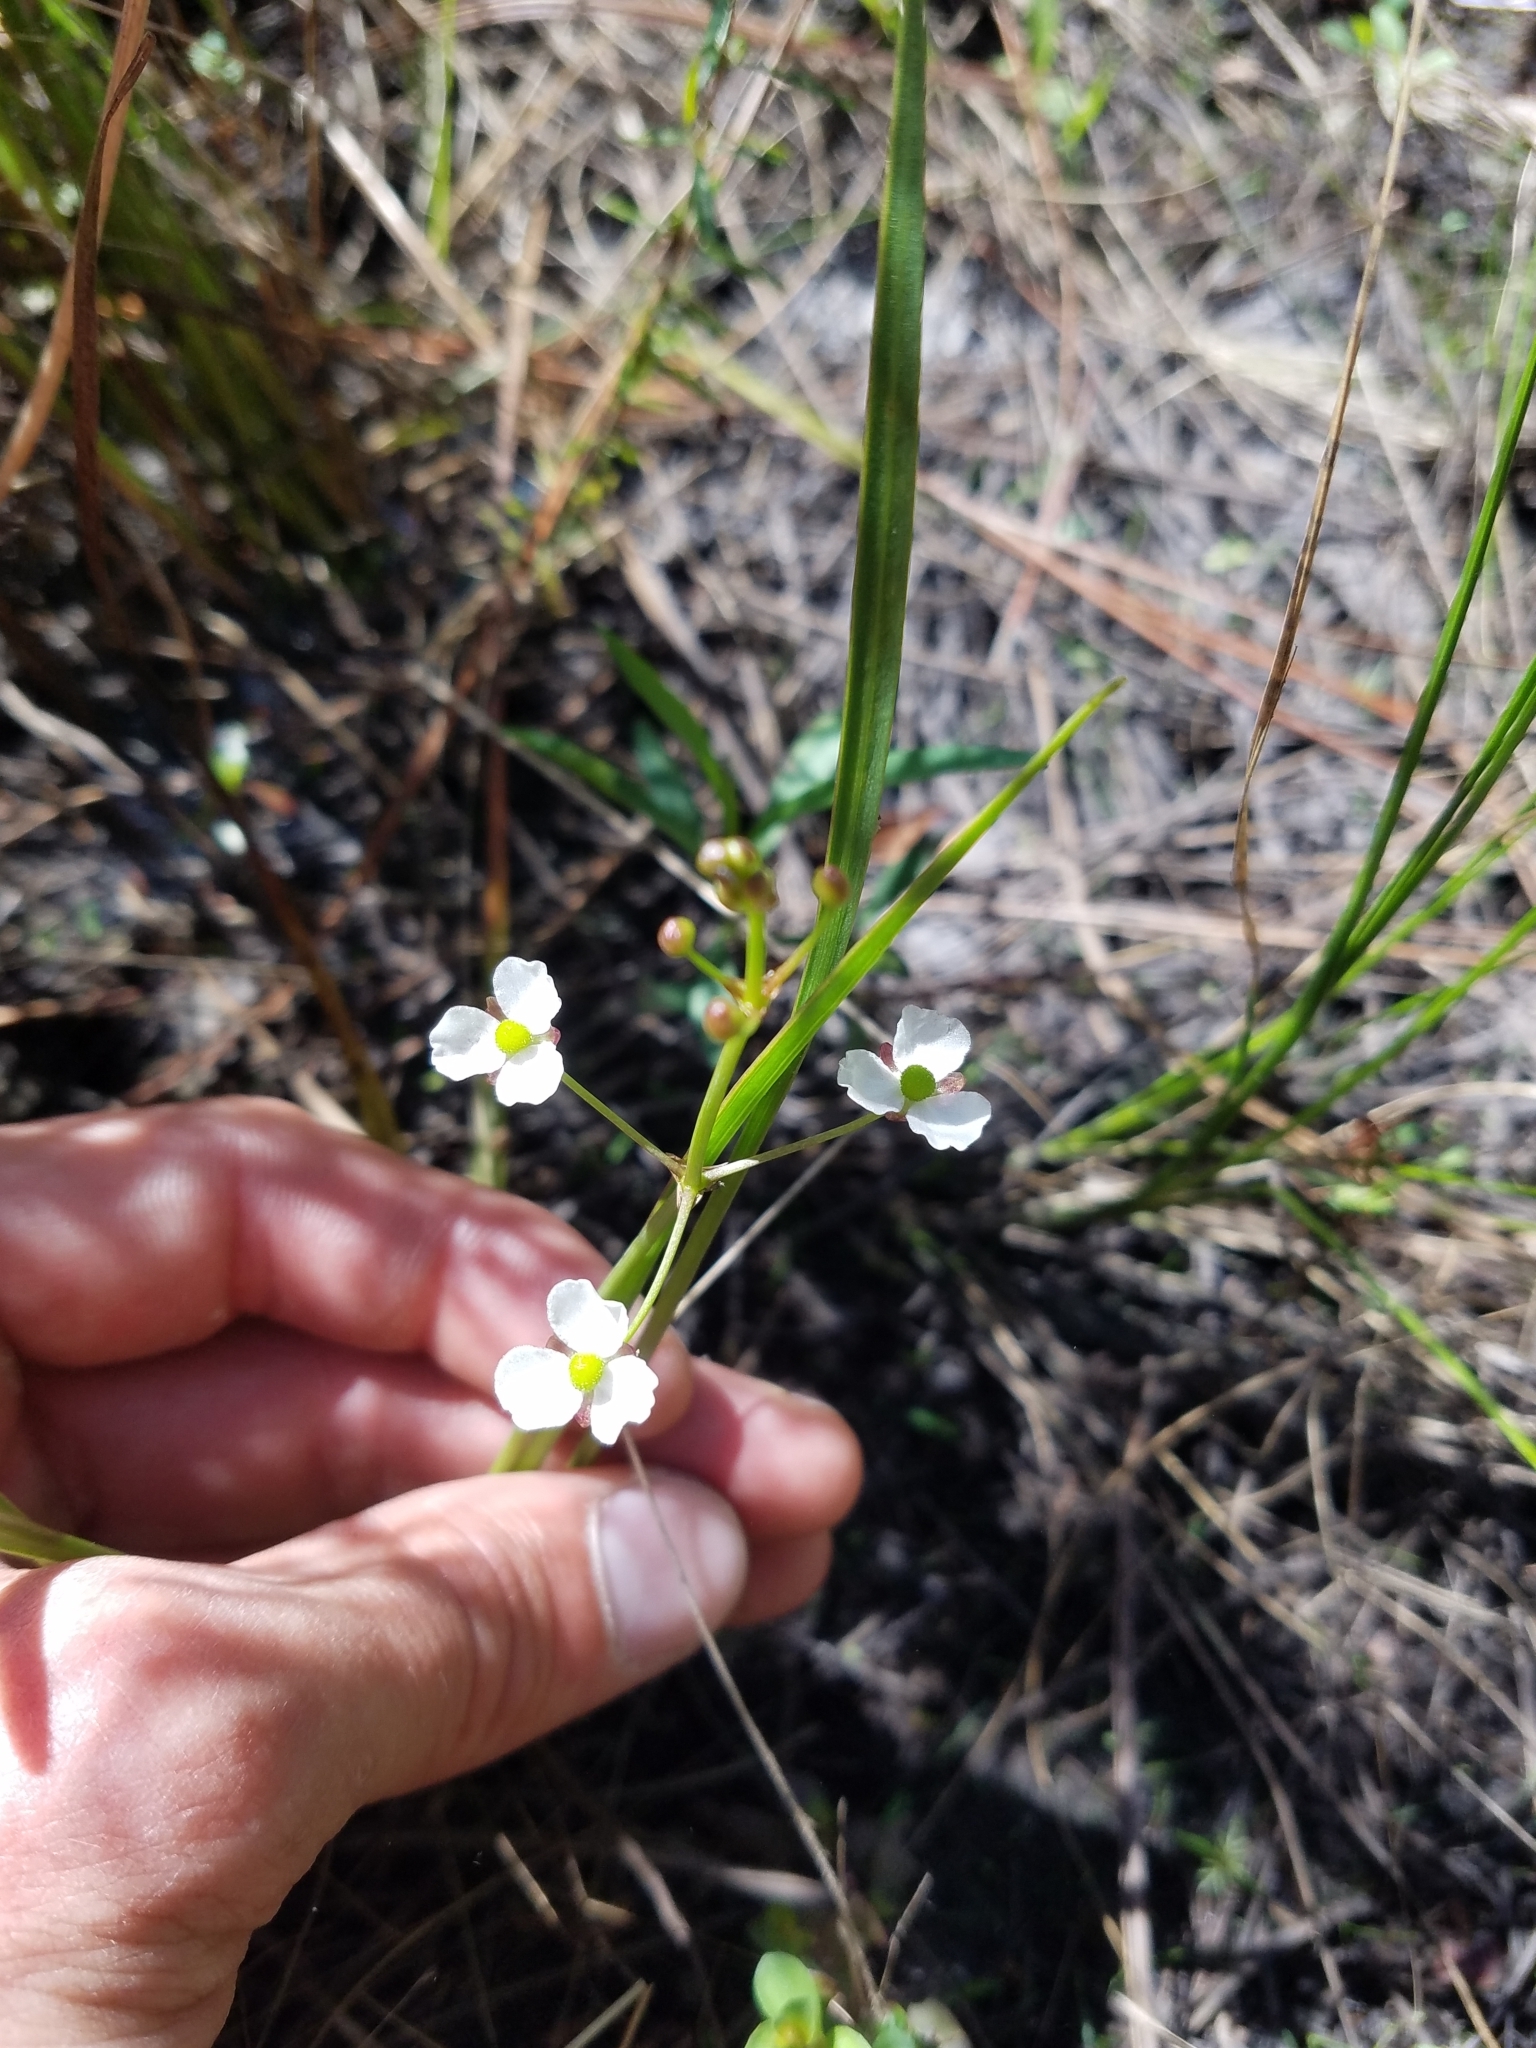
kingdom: Plantae
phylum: Tracheophyta
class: Liliopsida
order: Alismatales
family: Alismataceae
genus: Sagittaria
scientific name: Sagittaria graminea
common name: Grass-leaved arrowhead
